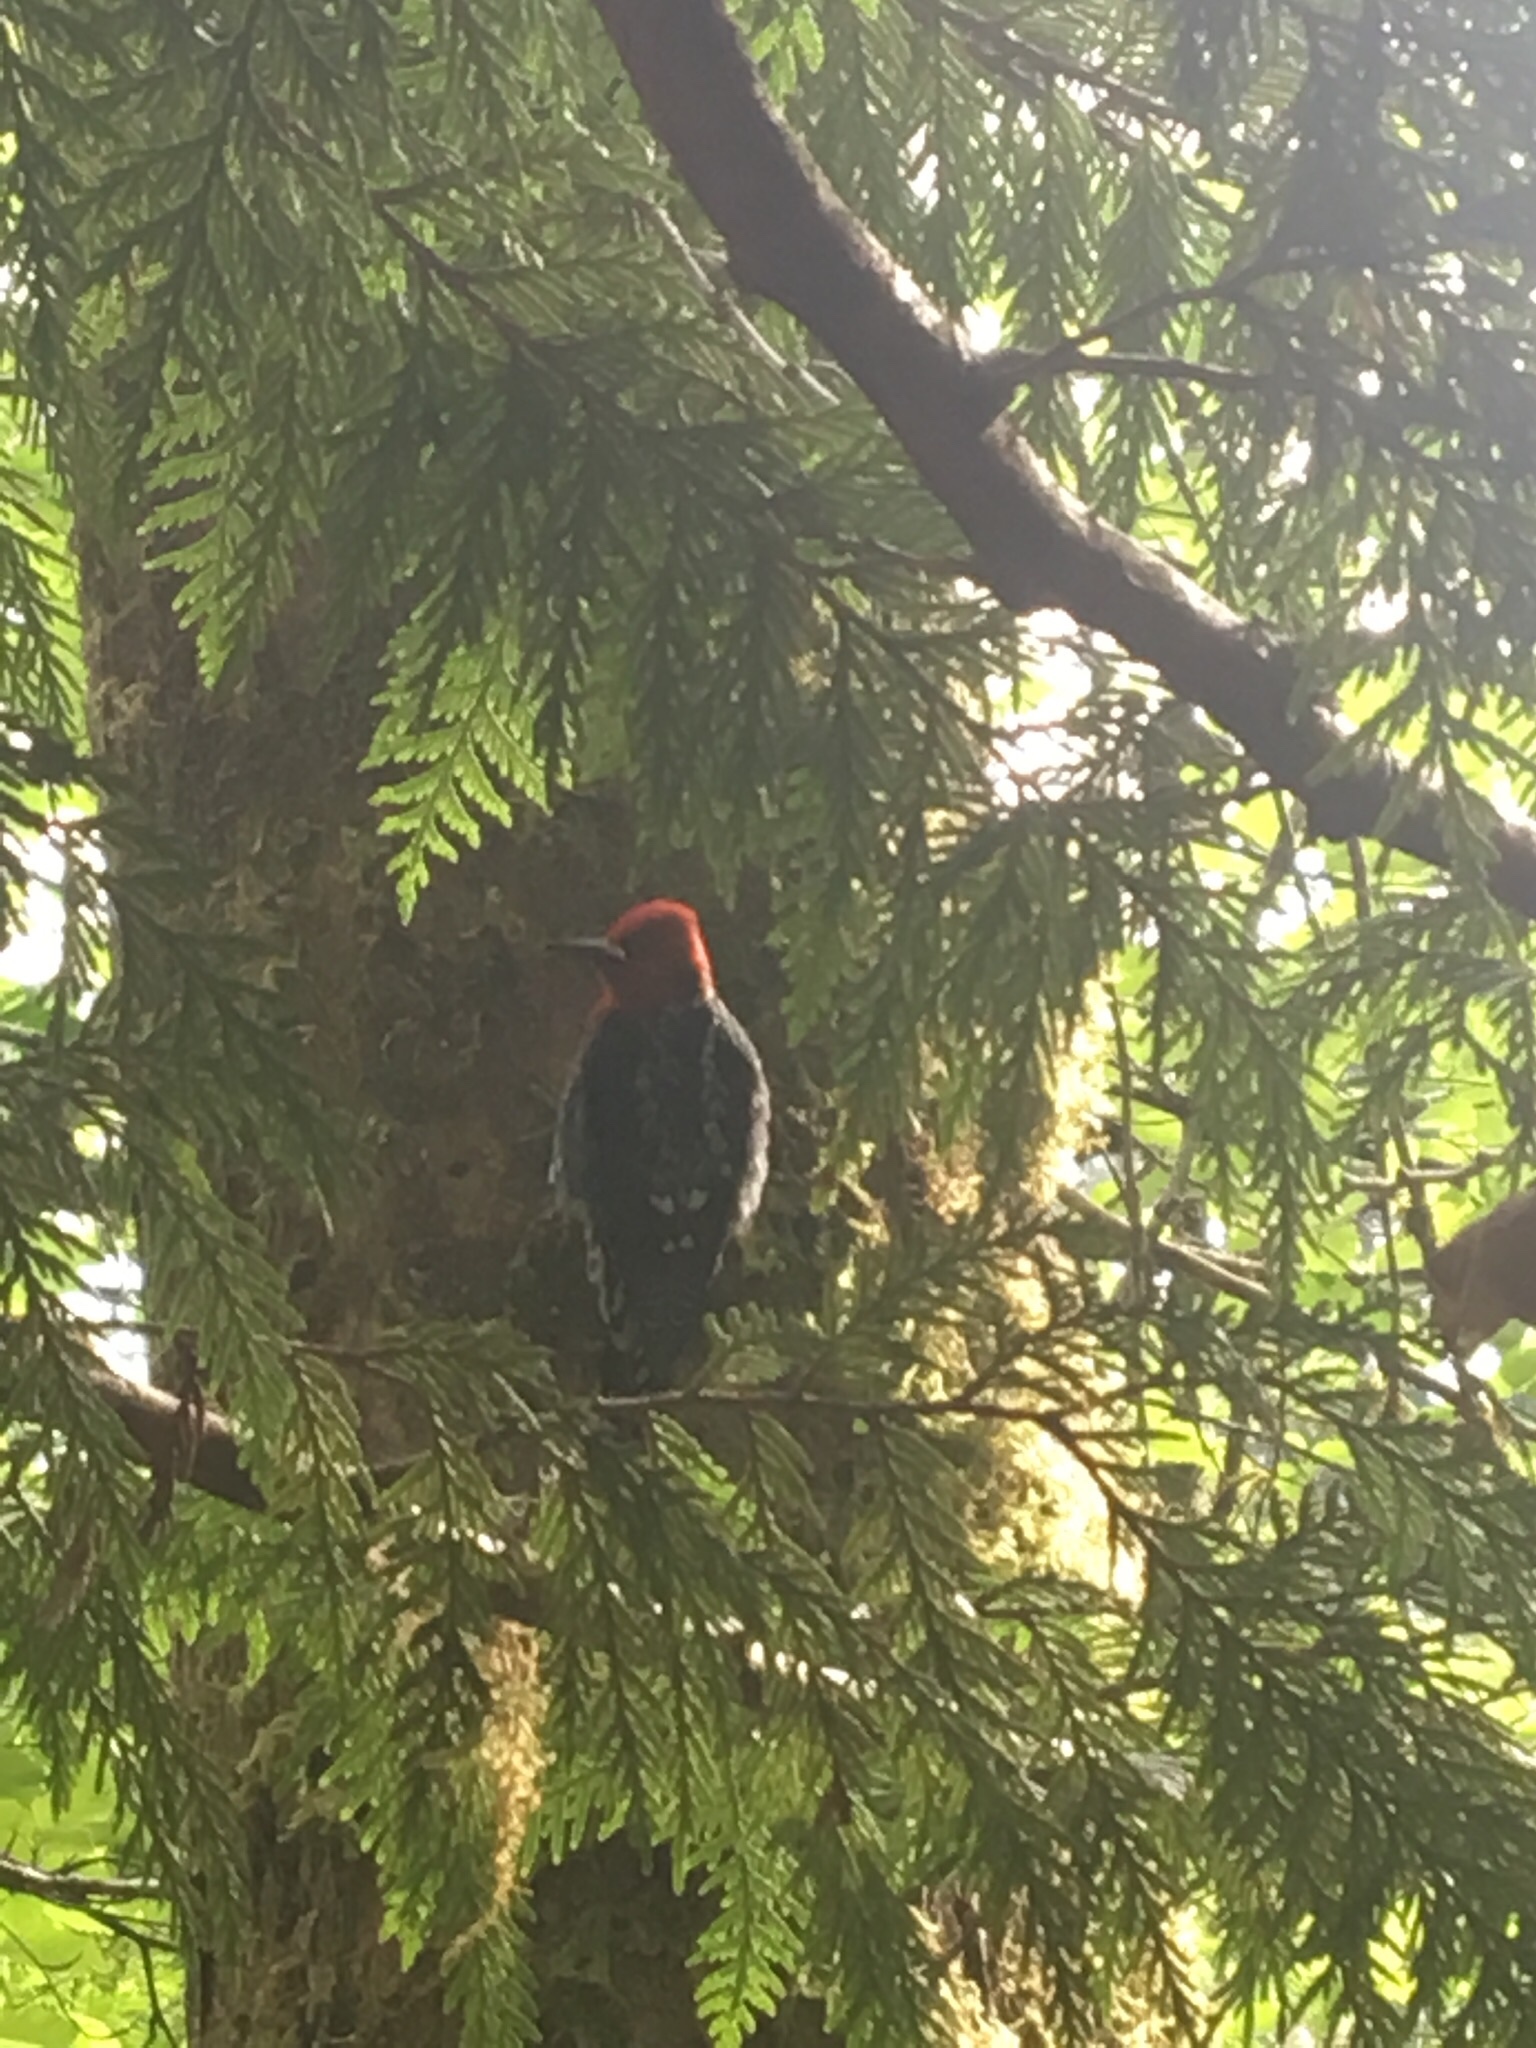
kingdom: Animalia
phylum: Chordata
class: Aves
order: Piciformes
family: Picidae
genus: Sphyrapicus
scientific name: Sphyrapicus ruber
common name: Red-breasted sapsucker
